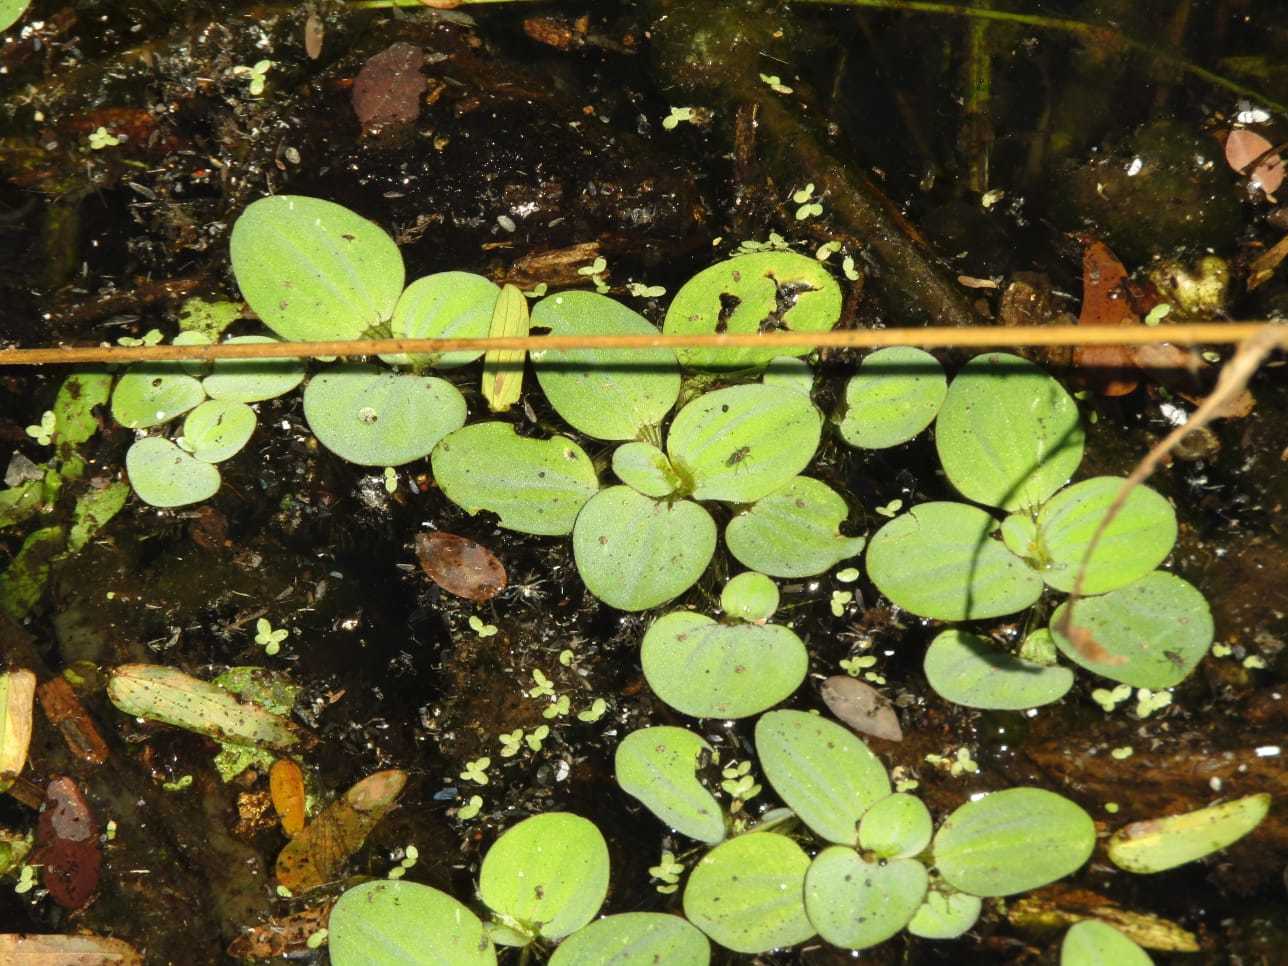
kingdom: Plantae
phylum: Tracheophyta
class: Liliopsida
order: Alismatales
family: Araceae
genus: Pistia
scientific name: Pistia stratiotes
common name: Water lettuce
